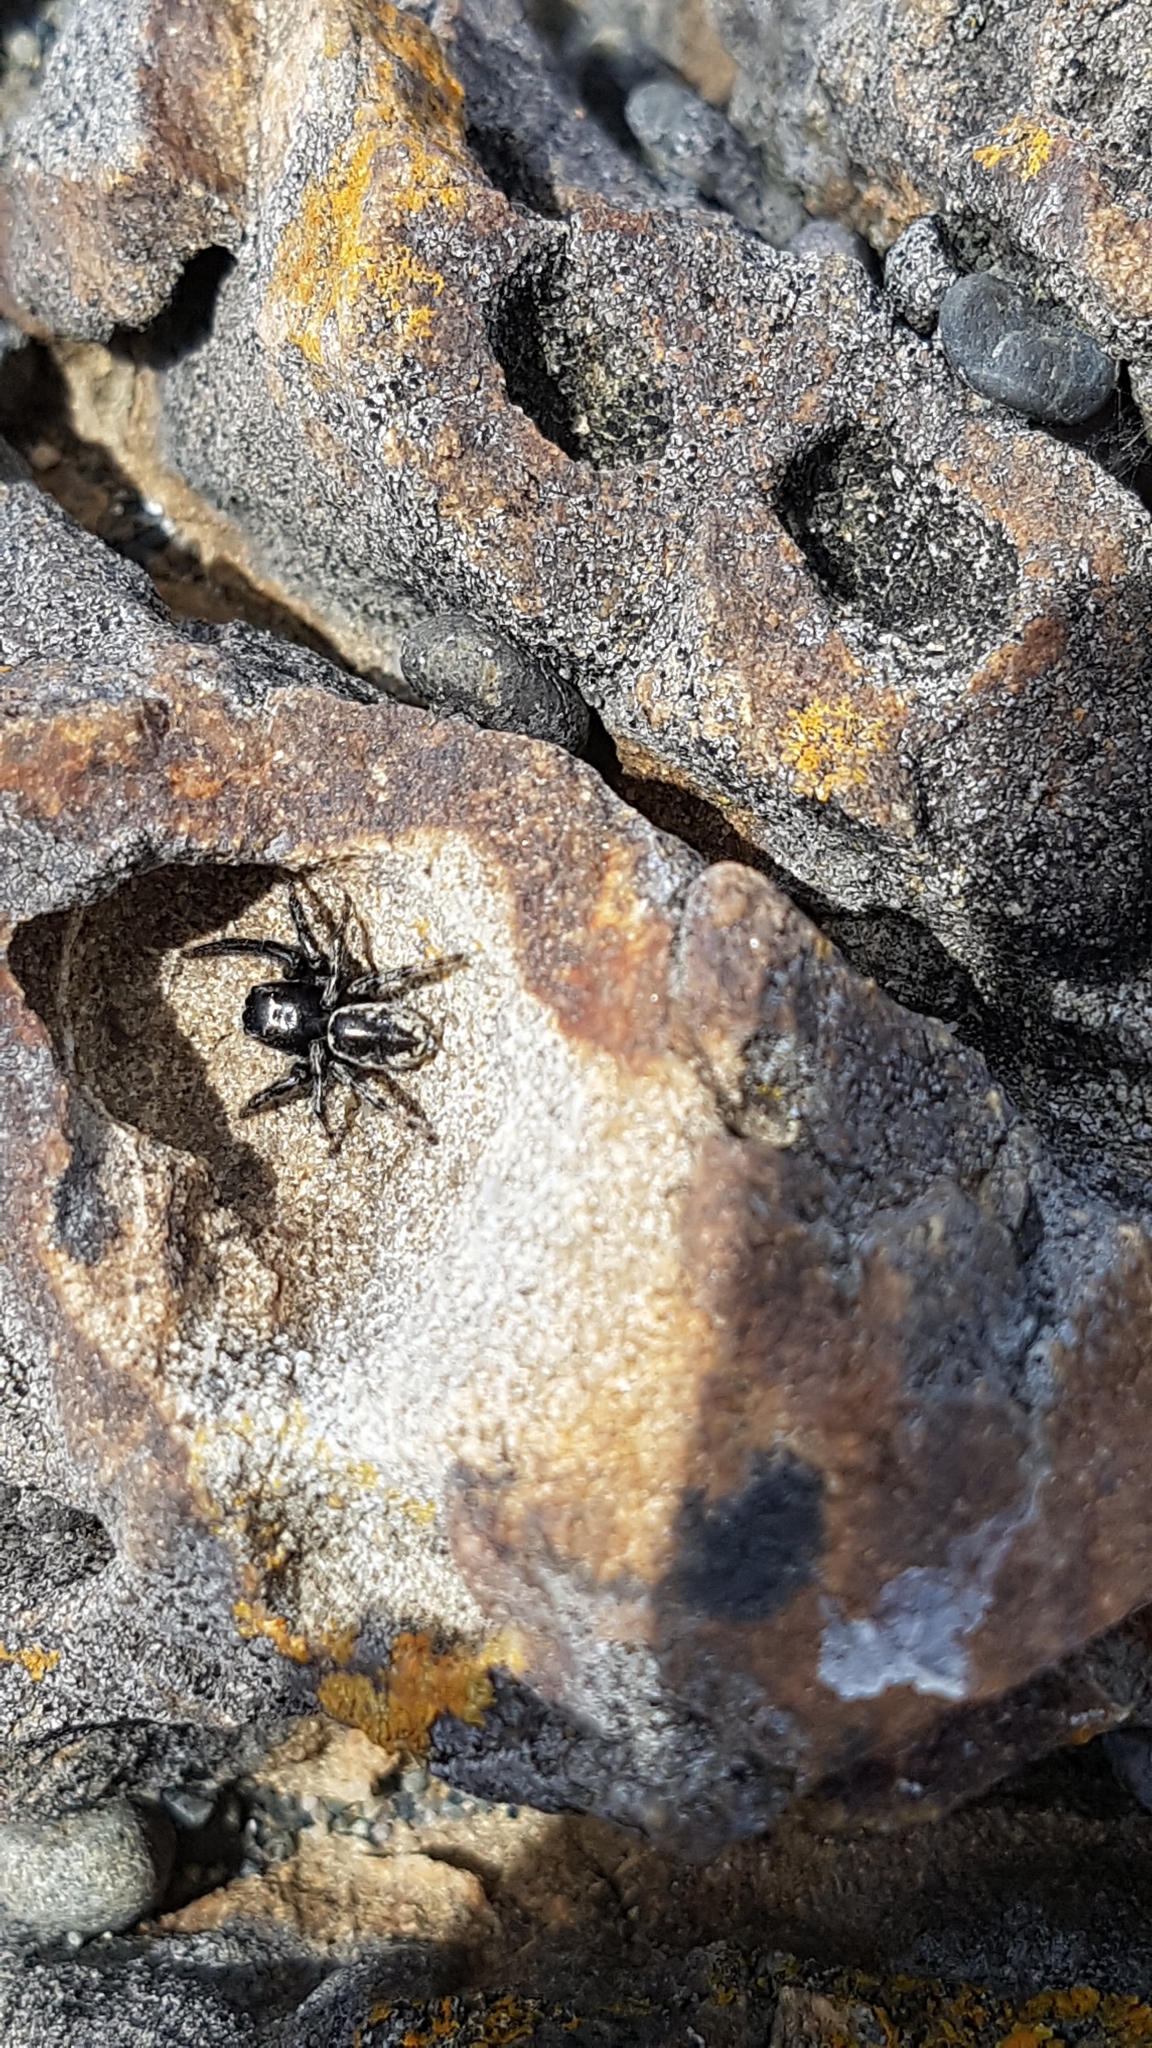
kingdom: Animalia
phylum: Arthropoda
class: Arachnida
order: Araneae
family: Salticidae
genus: Marpissa
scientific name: Marpissa marina
